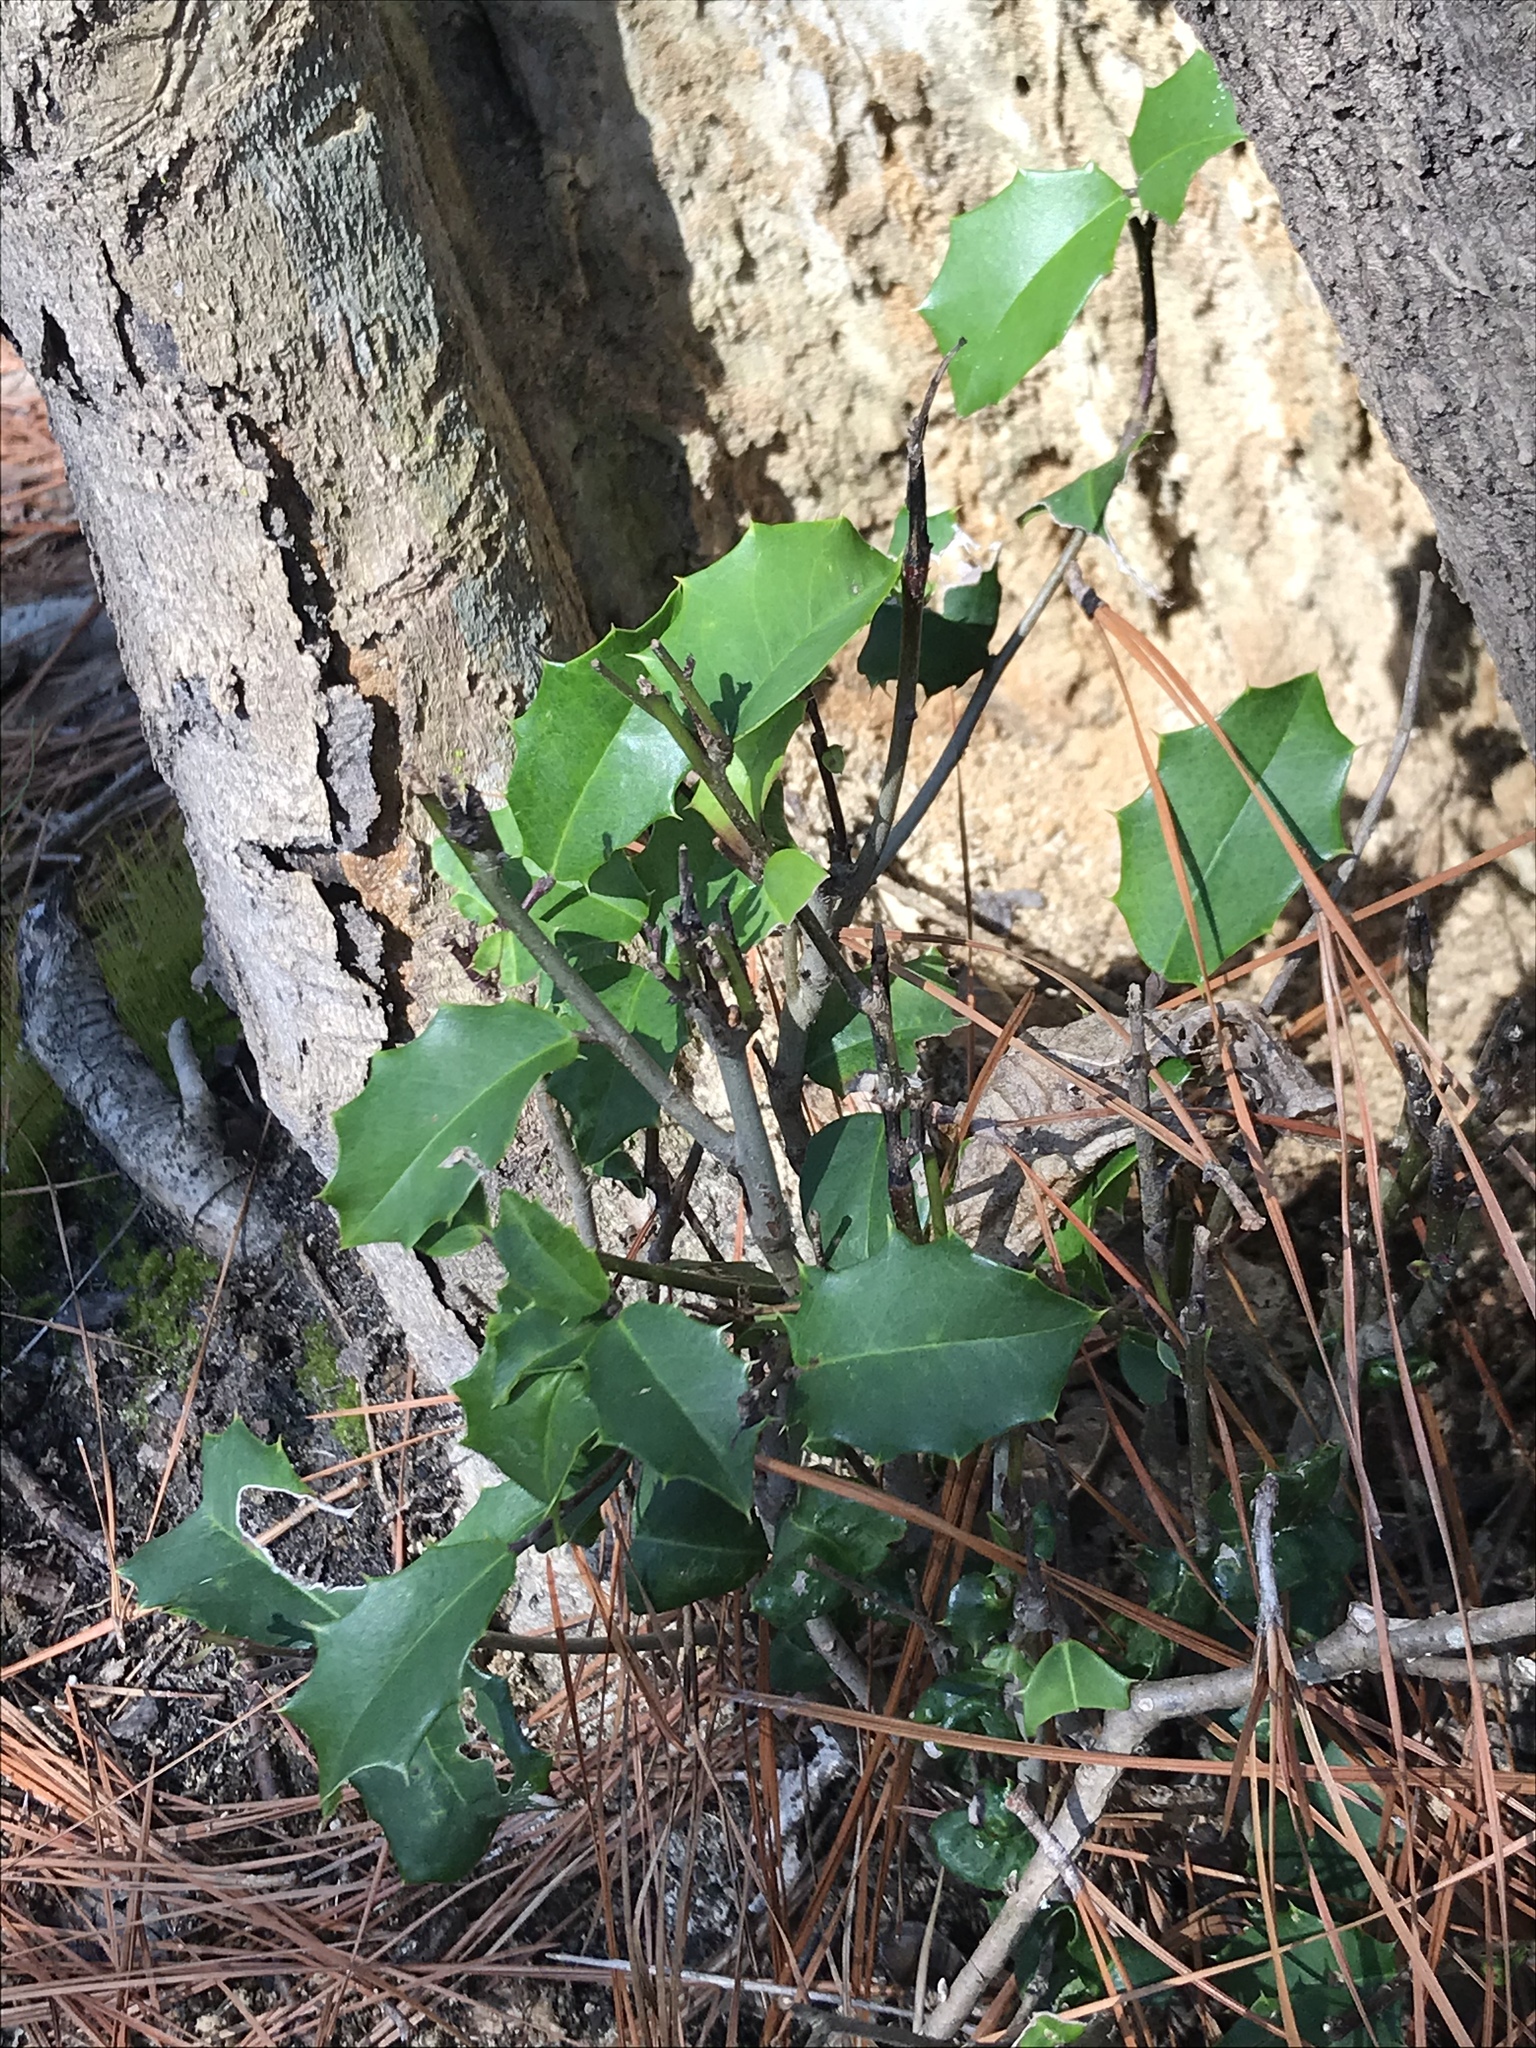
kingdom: Plantae
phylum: Tracheophyta
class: Magnoliopsida
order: Aquifoliales
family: Aquifoliaceae
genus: Ilex
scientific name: Ilex opaca
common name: American holly
